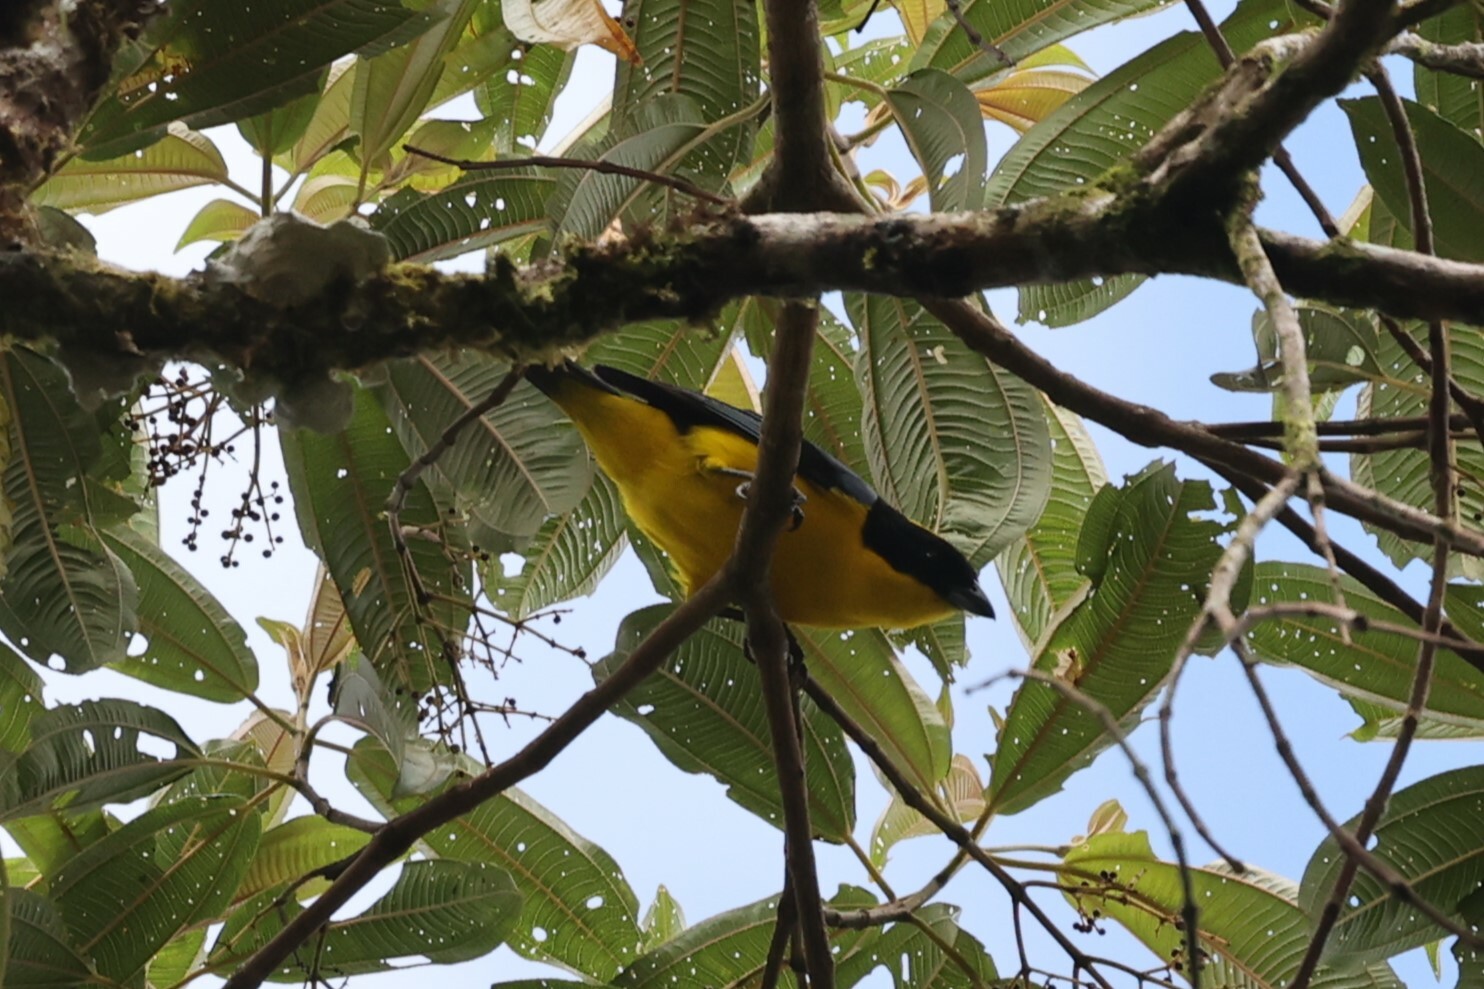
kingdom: Animalia
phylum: Chordata
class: Aves
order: Passeriformes
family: Thraupidae
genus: Anisognathus
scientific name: Anisognathus somptuosus
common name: Blue-winged mountain-tanager
